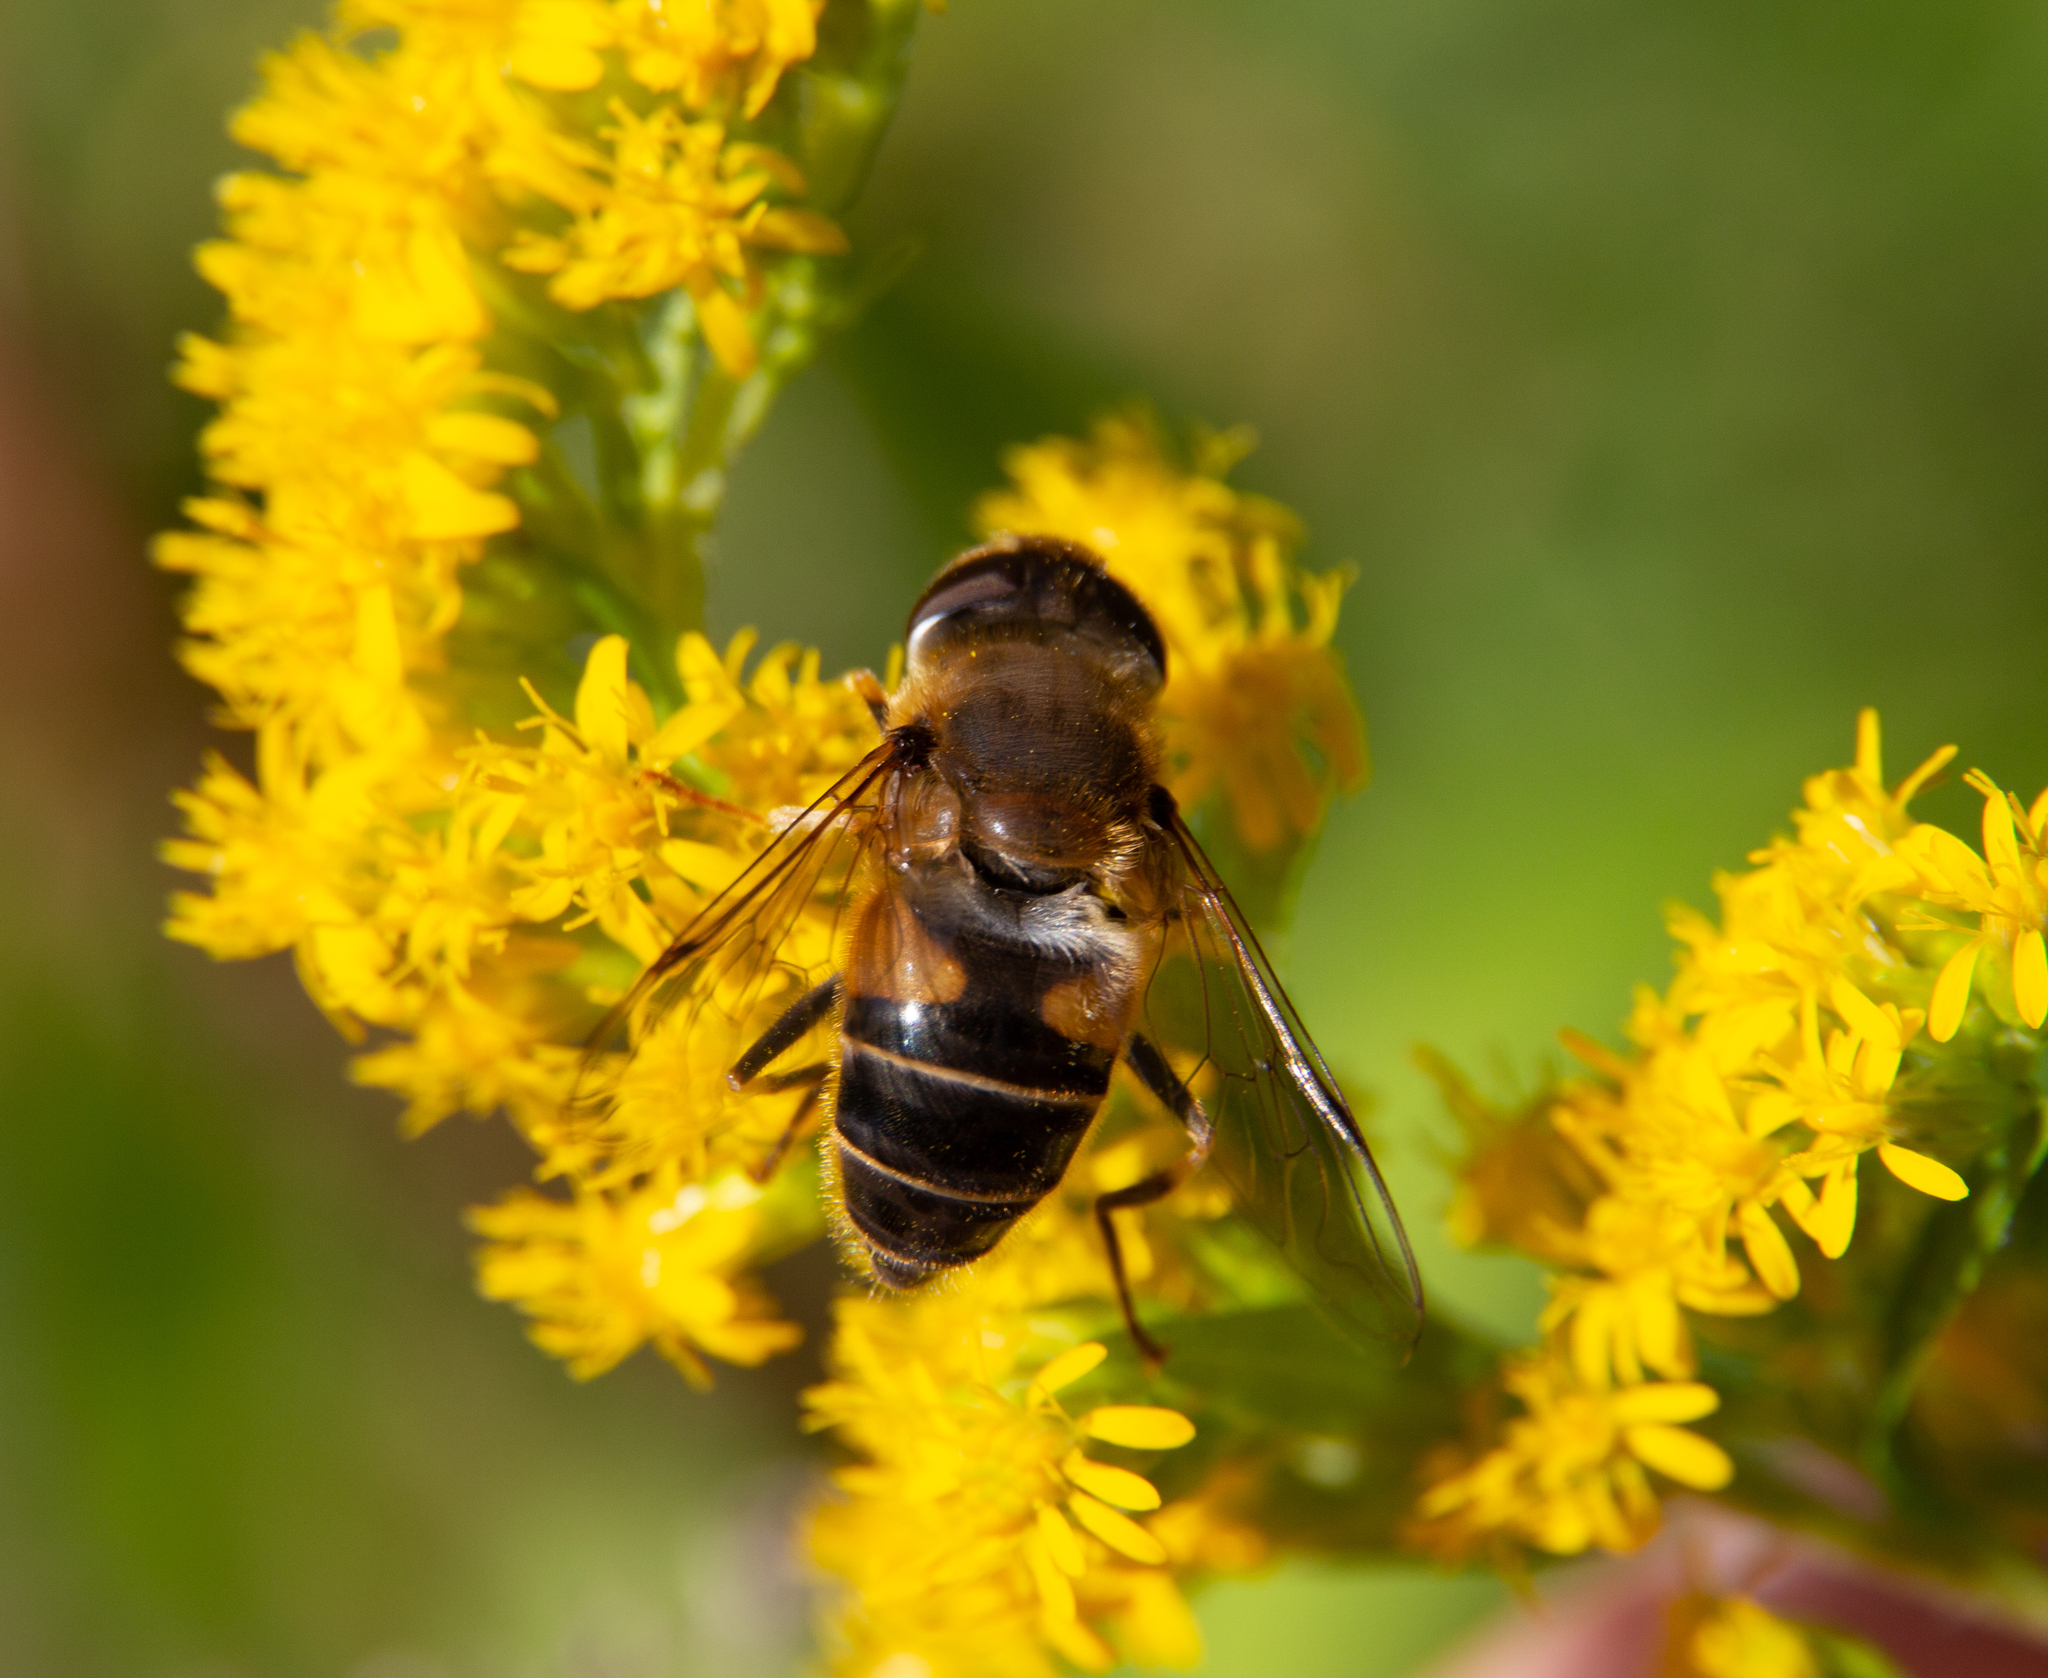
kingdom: Animalia
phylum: Arthropoda
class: Insecta
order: Diptera
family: Syrphidae
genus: Eristalis
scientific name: Eristalis pertinax
